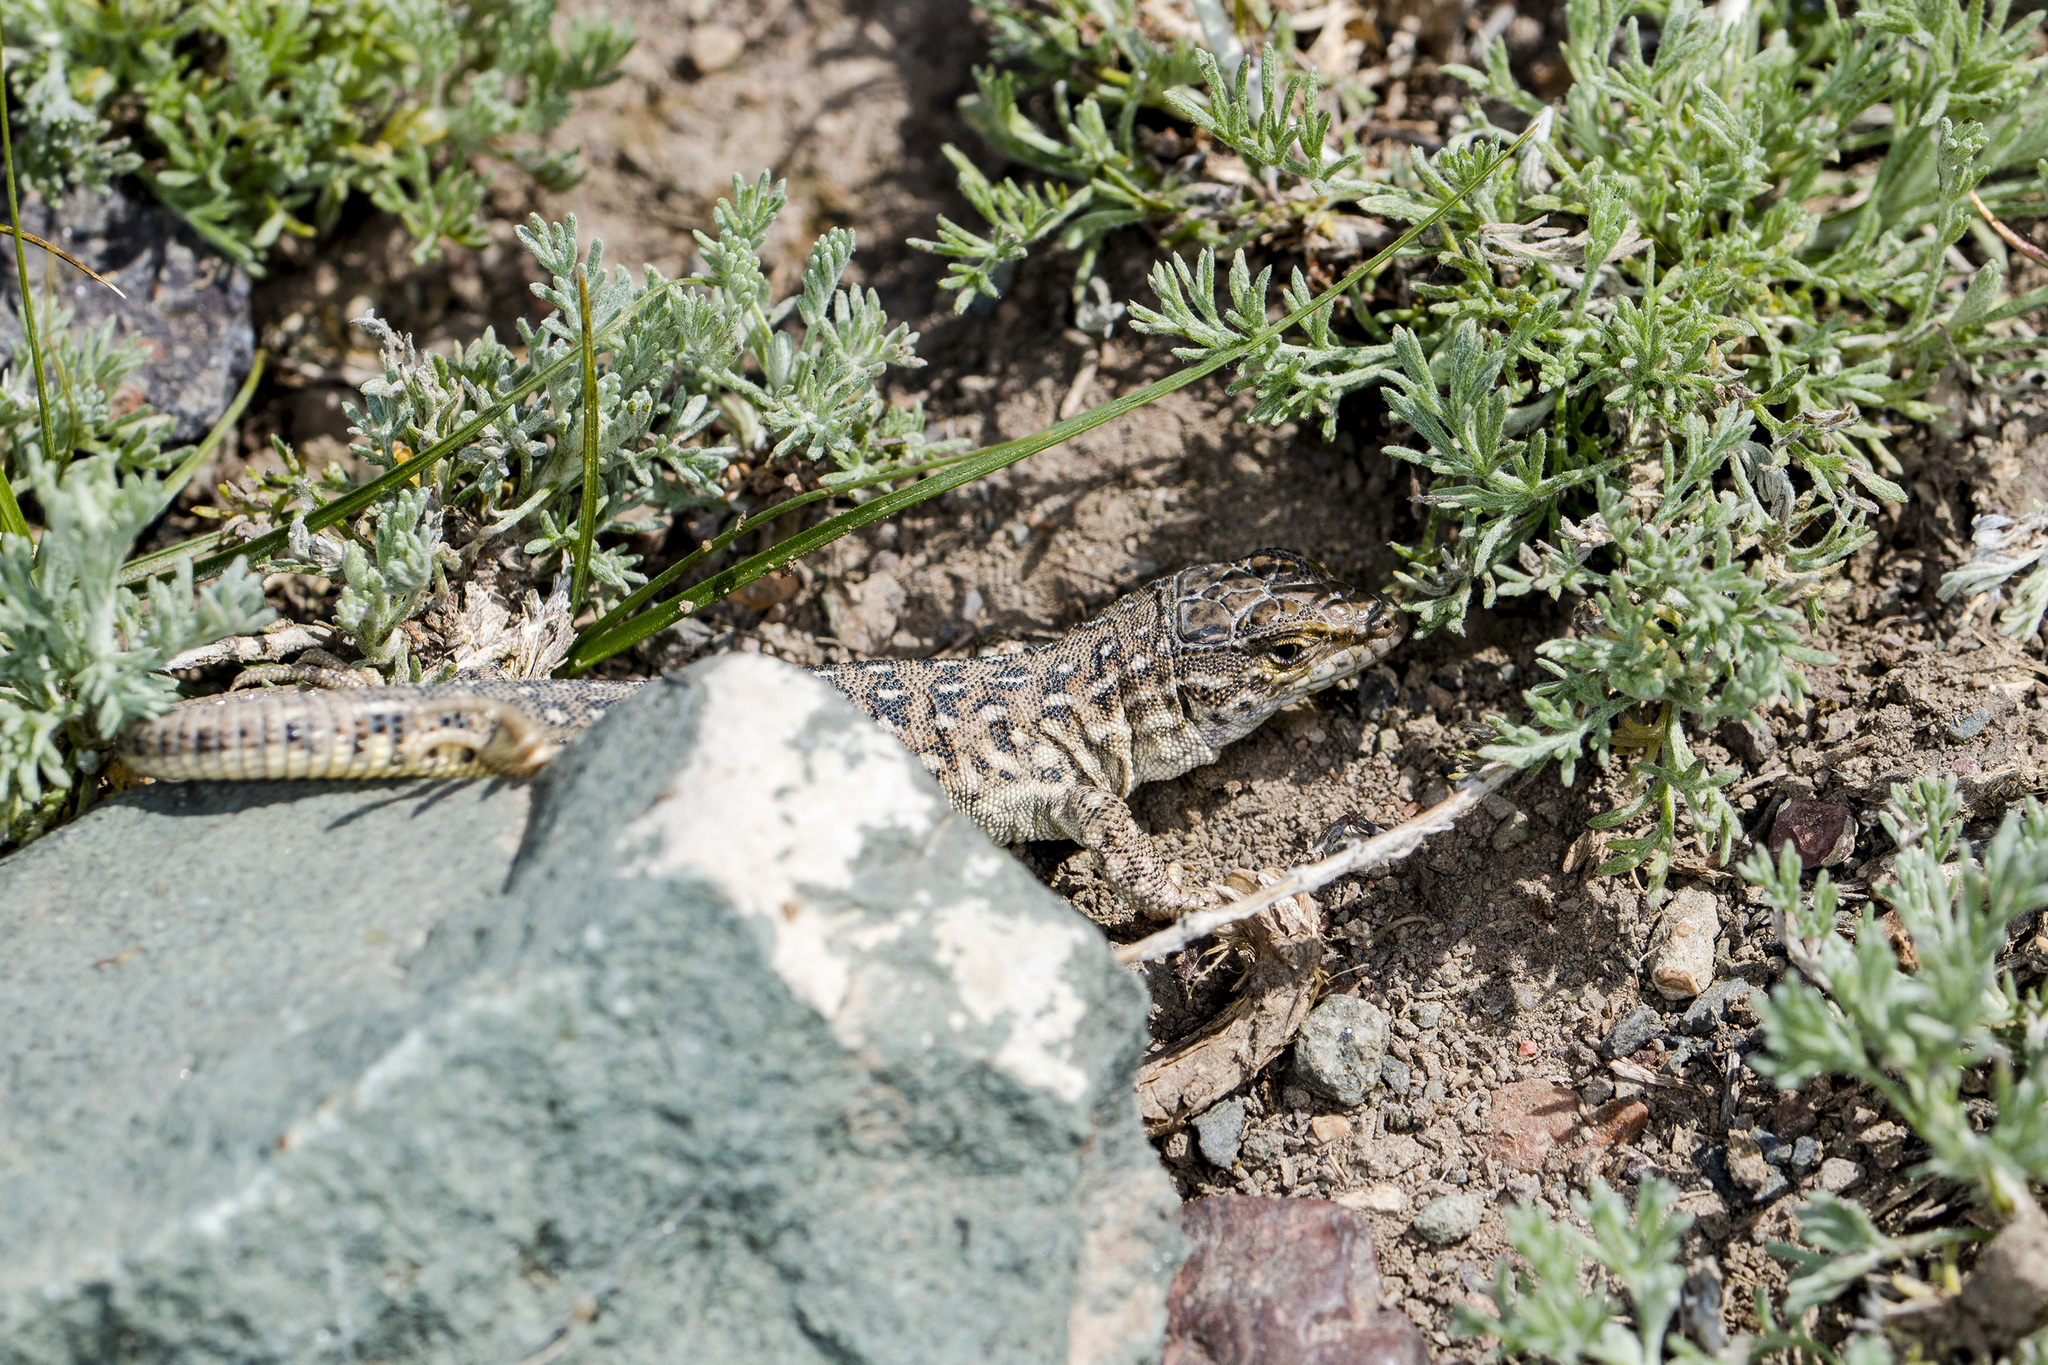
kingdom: Animalia
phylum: Chordata
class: Squamata
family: Lacertidae
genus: Eremias
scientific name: Eremias arguta
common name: Racerunner
